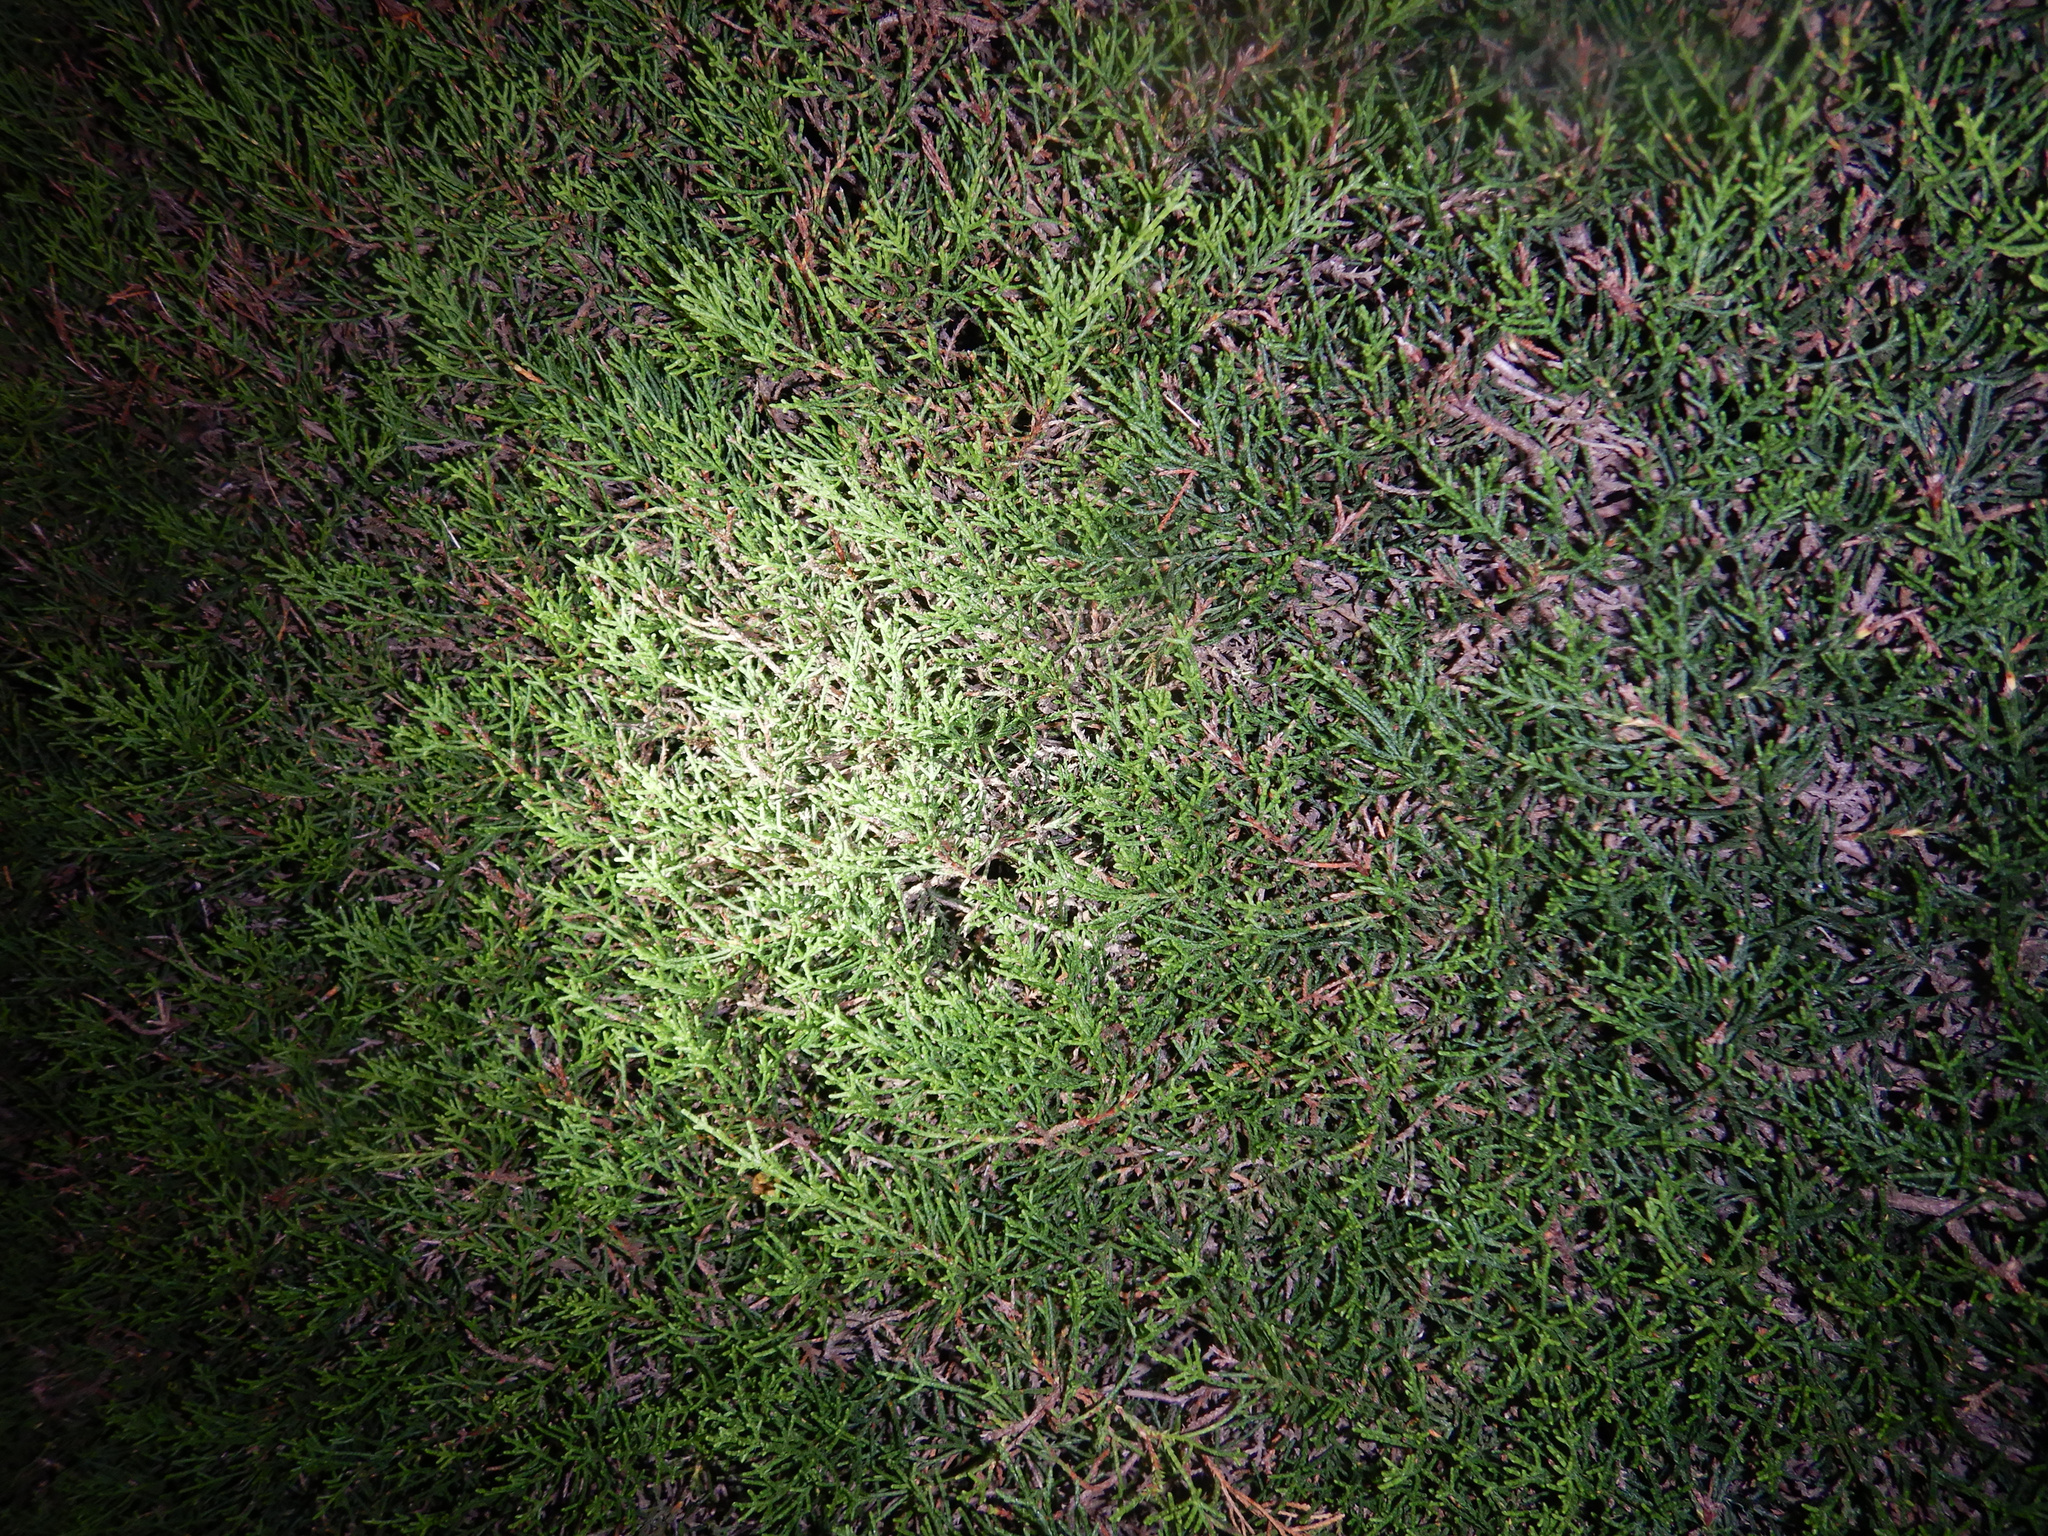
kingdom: Plantae
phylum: Tracheophyta
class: Pinopsida
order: Pinales
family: Cupressaceae
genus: Cupressus
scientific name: Cupressus macrocarpa
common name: Monterey cypress
